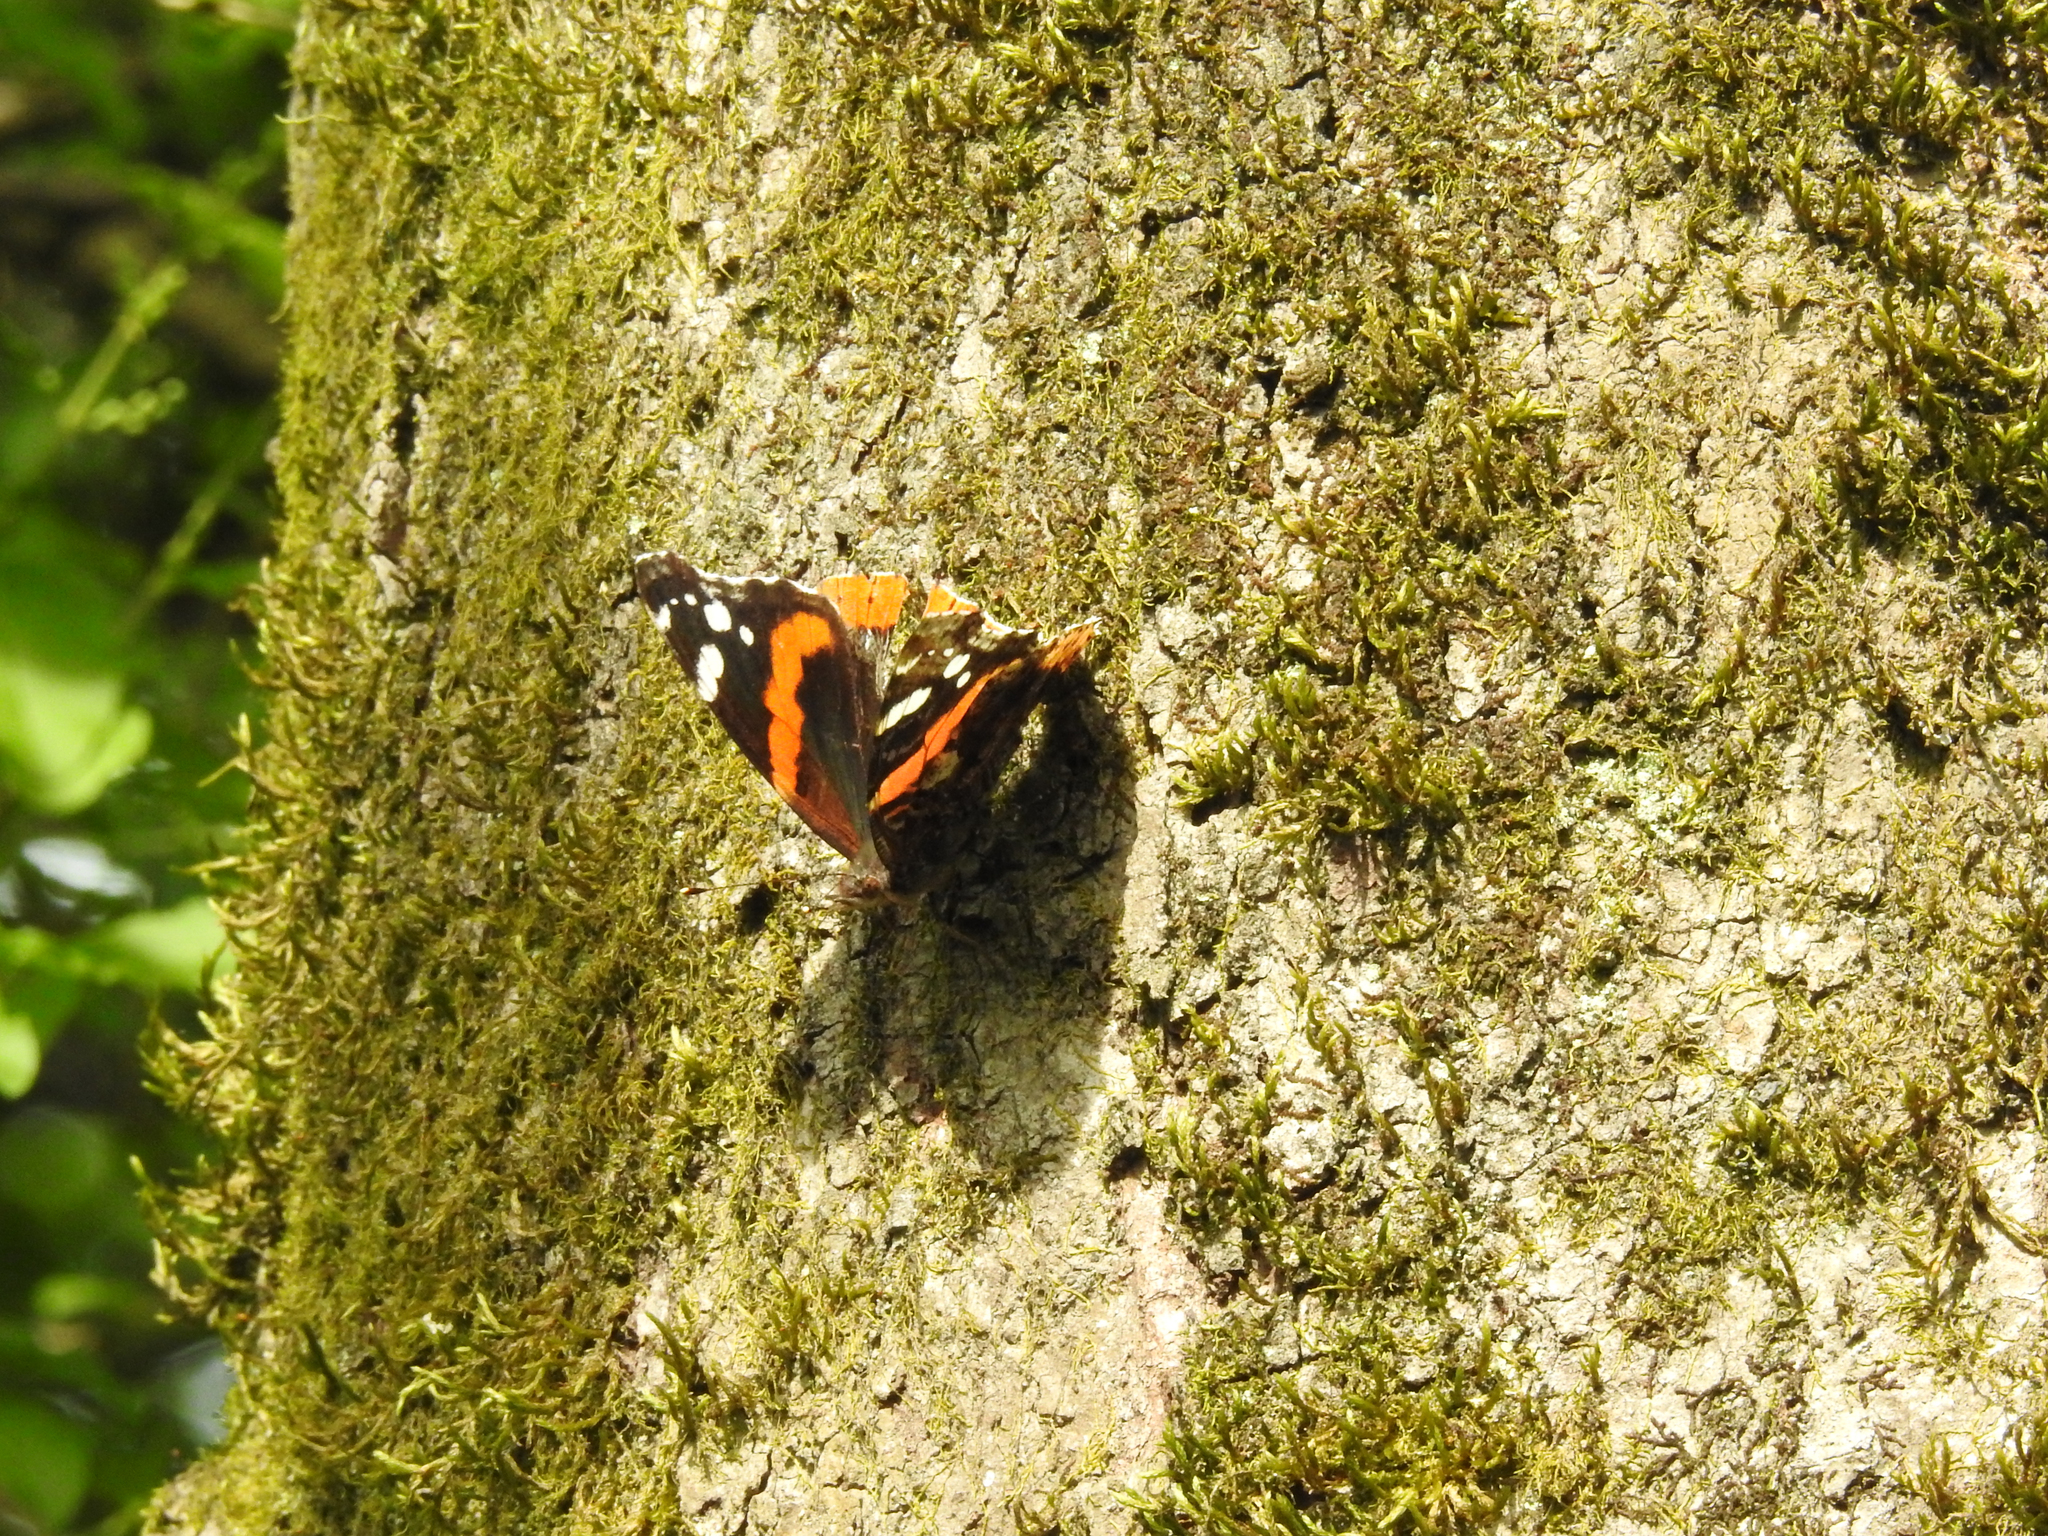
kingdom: Animalia
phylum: Arthropoda
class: Insecta
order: Lepidoptera
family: Nymphalidae
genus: Vanessa
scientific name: Vanessa atalanta
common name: Red admiral
